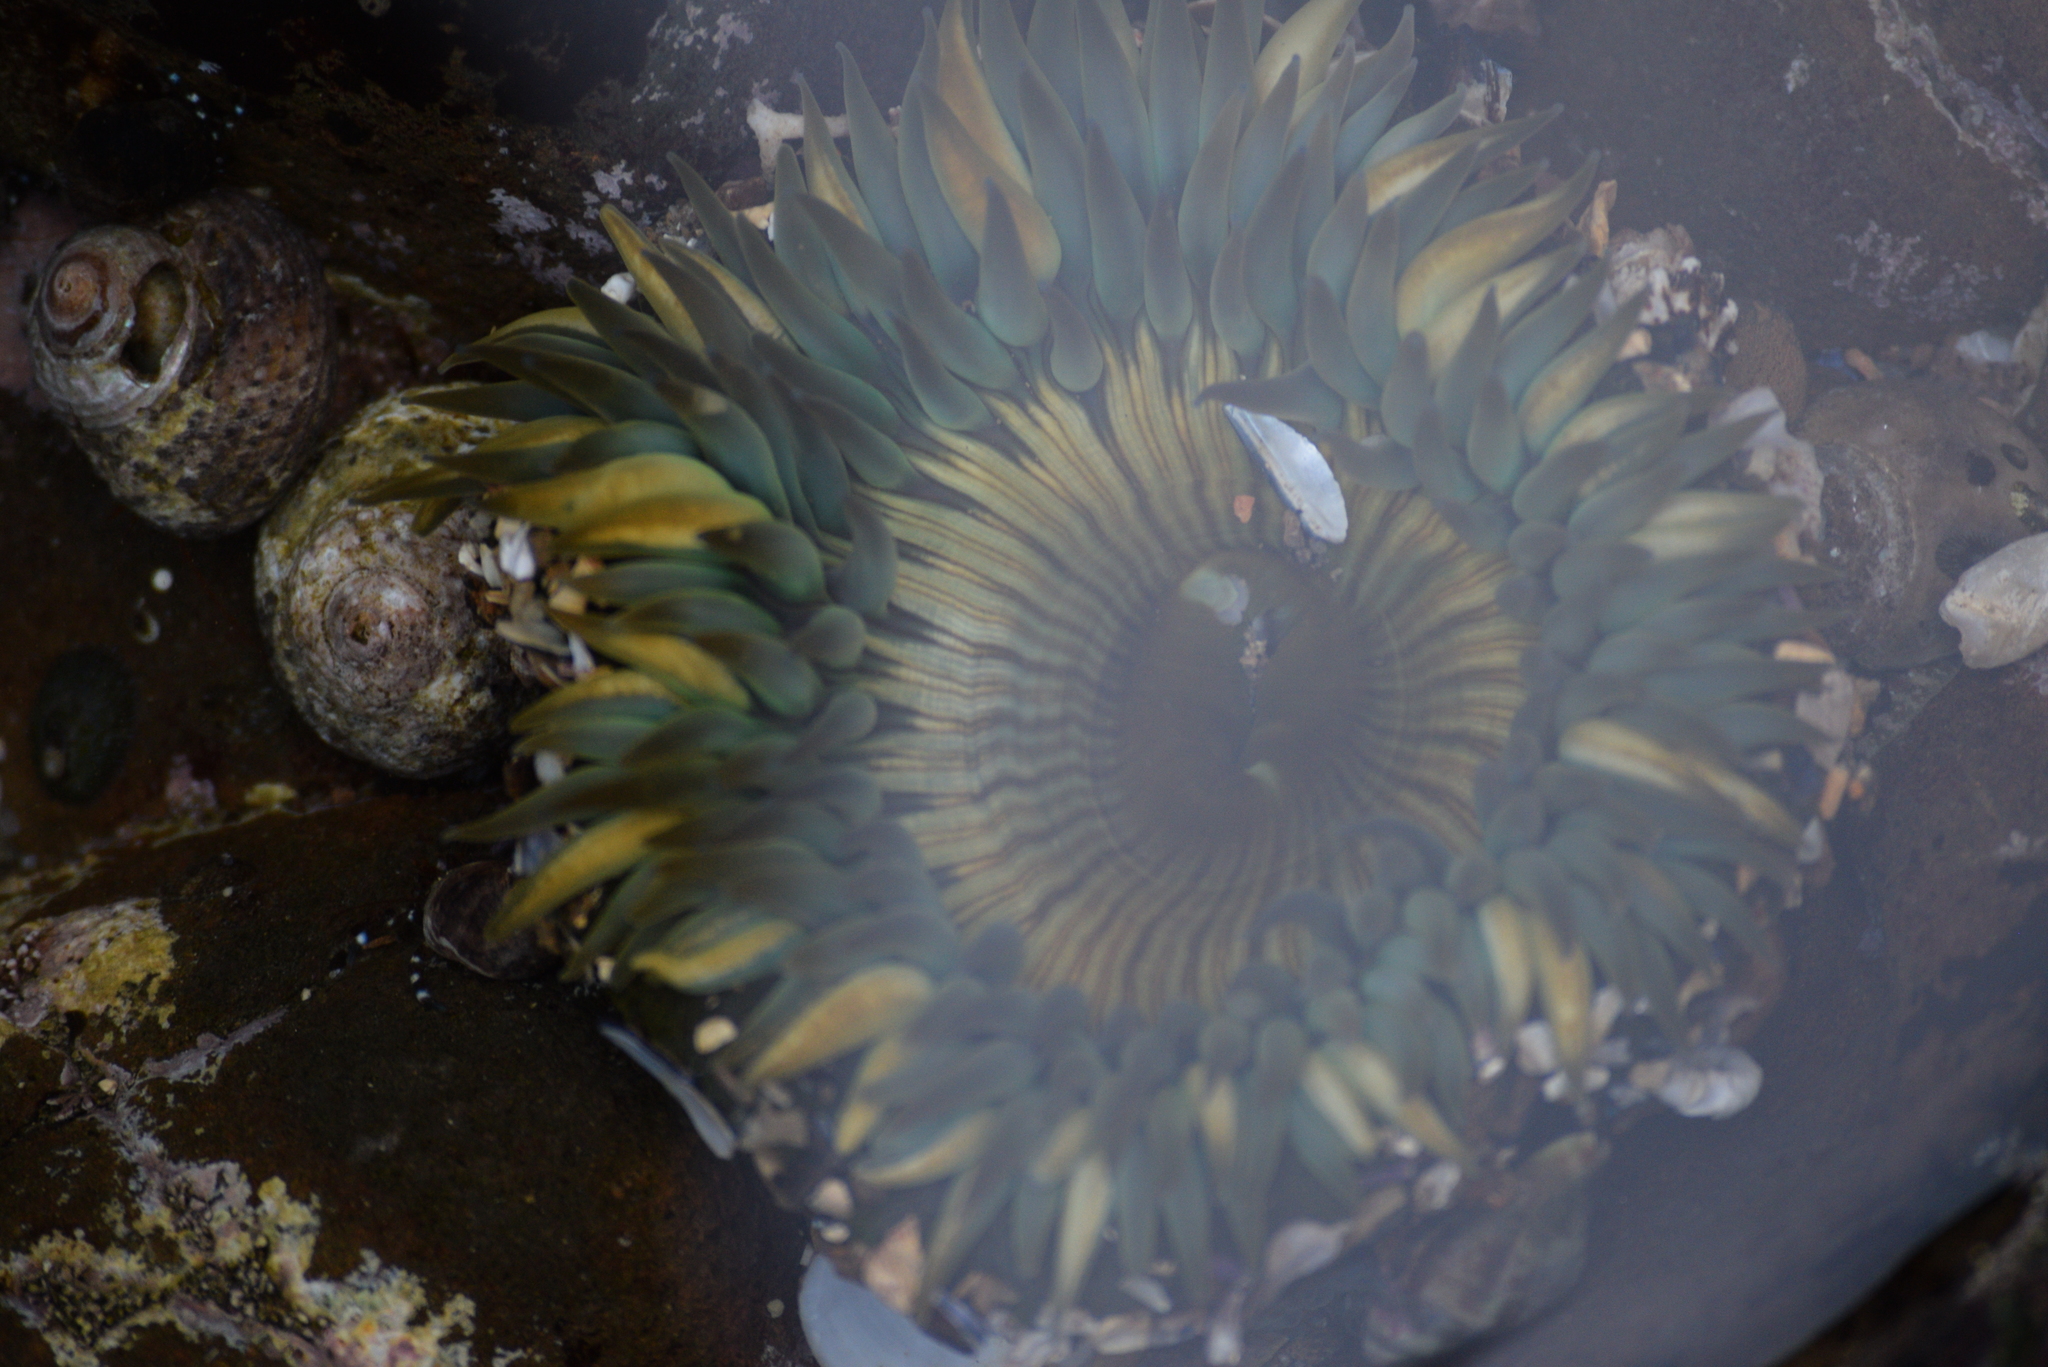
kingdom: Animalia
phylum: Cnidaria
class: Anthozoa
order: Actiniaria
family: Actiniidae
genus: Anthopleura
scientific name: Anthopleura sola
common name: Sun anemone
